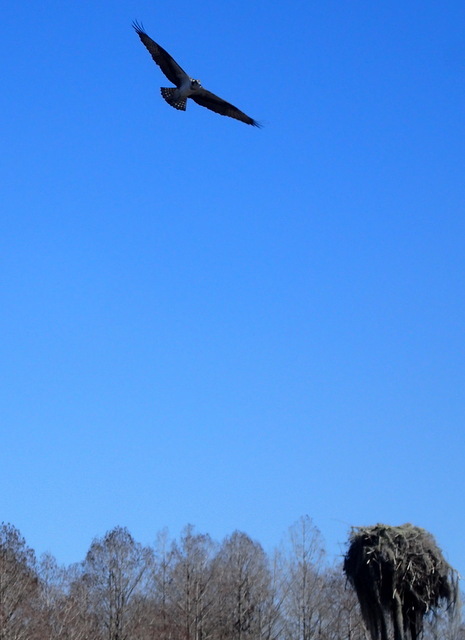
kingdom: Animalia
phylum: Chordata
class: Aves
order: Accipitriformes
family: Pandionidae
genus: Pandion
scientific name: Pandion haliaetus
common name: Osprey
